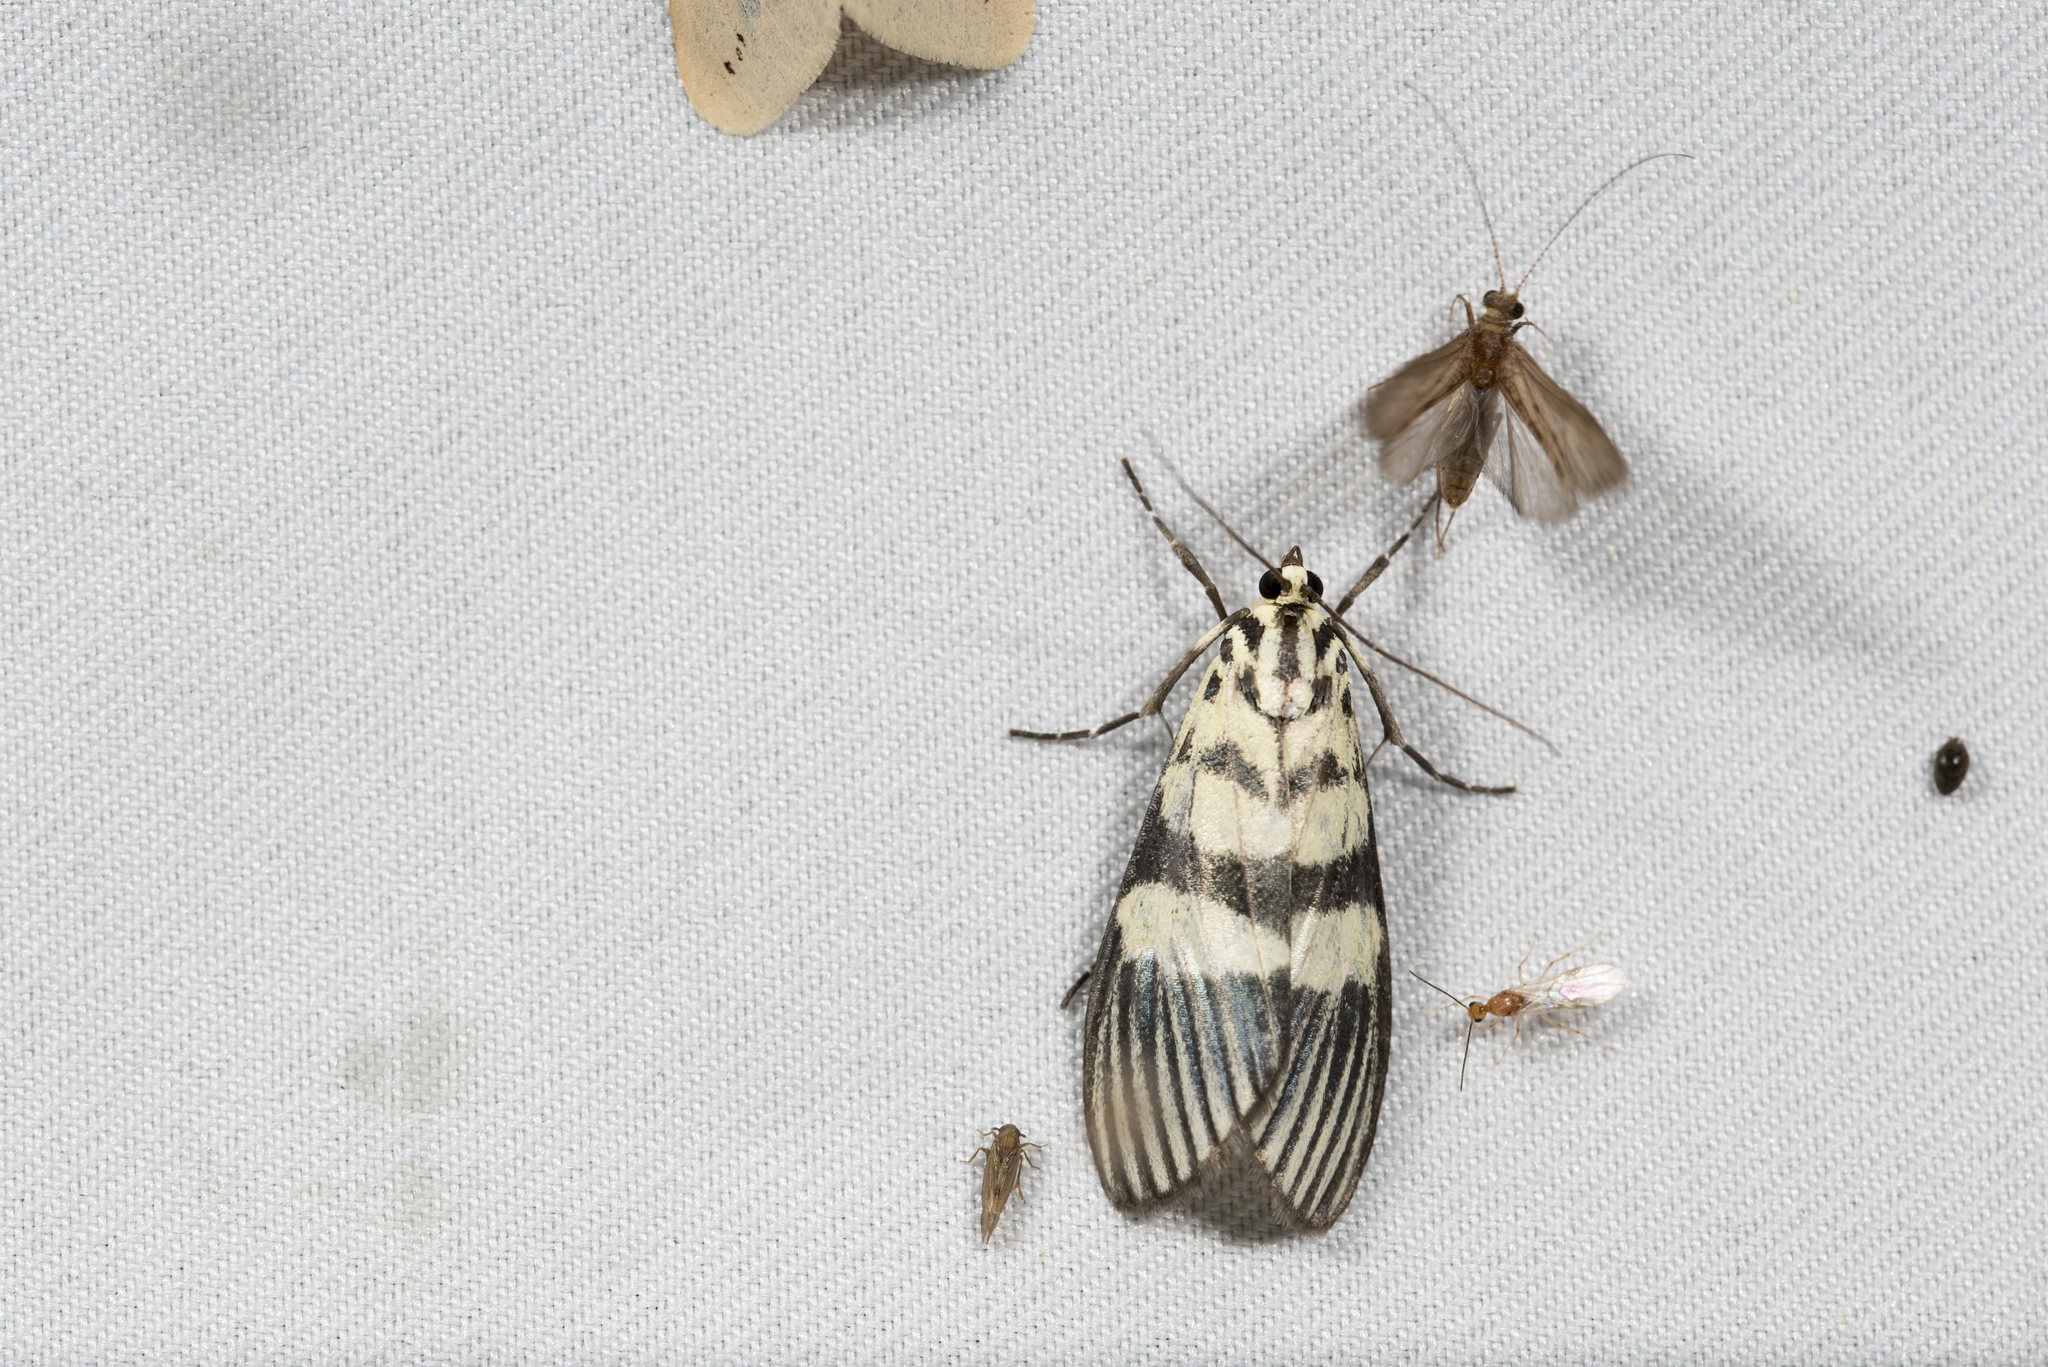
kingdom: Animalia
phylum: Arthropoda
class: Insecta
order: Lepidoptera
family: Crambidae
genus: Heortia
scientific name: Heortia vitessoides
